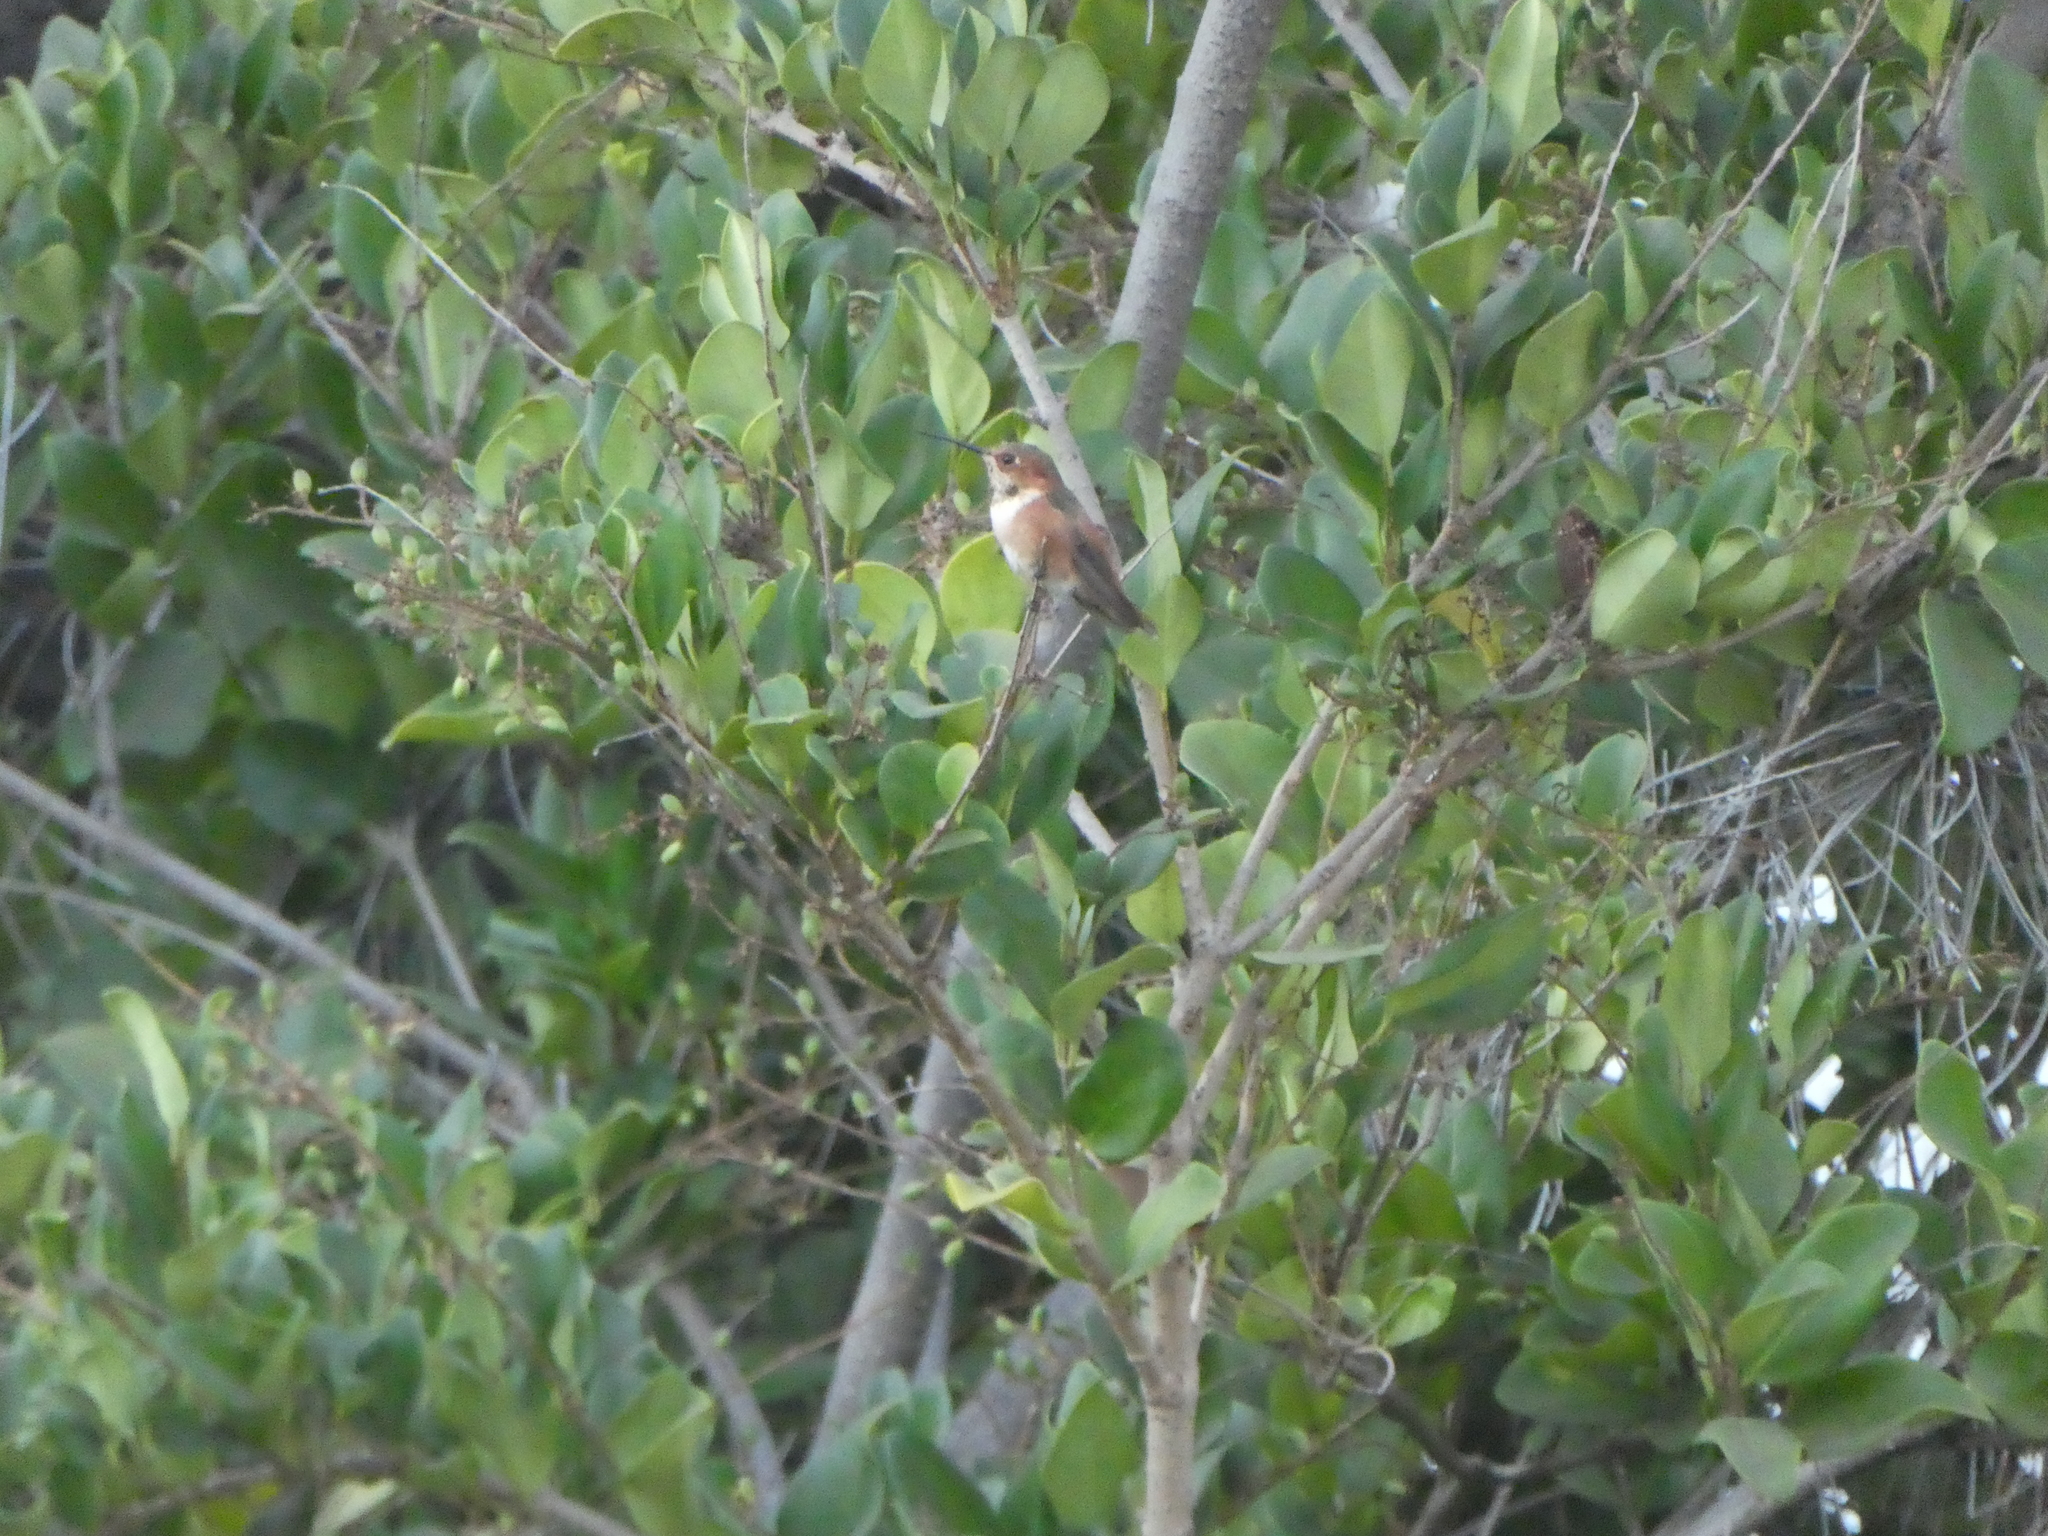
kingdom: Animalia
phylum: Chordata
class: Aves
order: Apodiformes
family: Trochilidae
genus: Selasphorus
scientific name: Selasphorus
